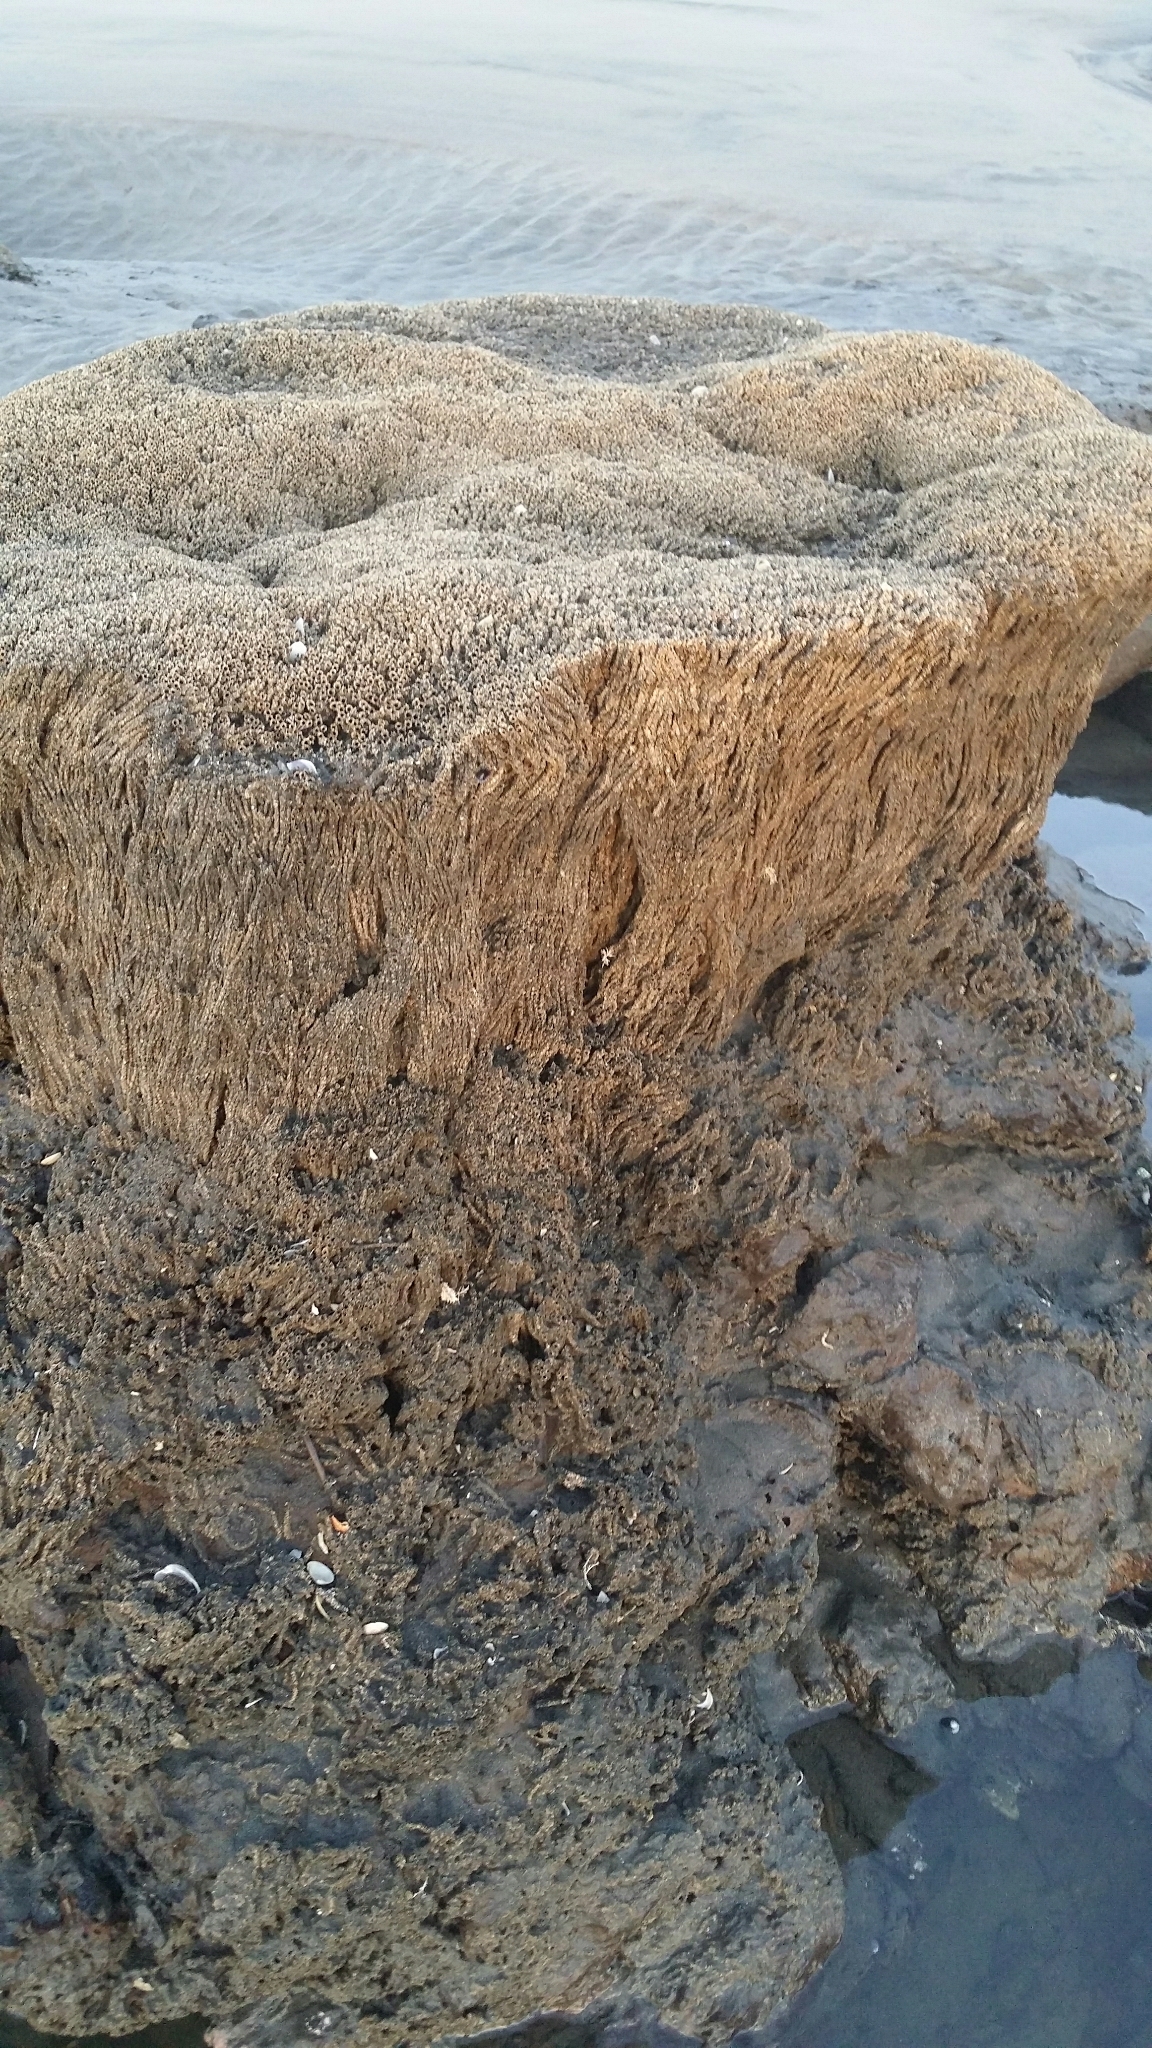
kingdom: Animalia
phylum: Annelida
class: Polychaeta
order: Sabellida
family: Sabellariidae
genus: Neosabellaria
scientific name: Neosabellaria kaiparaensis
